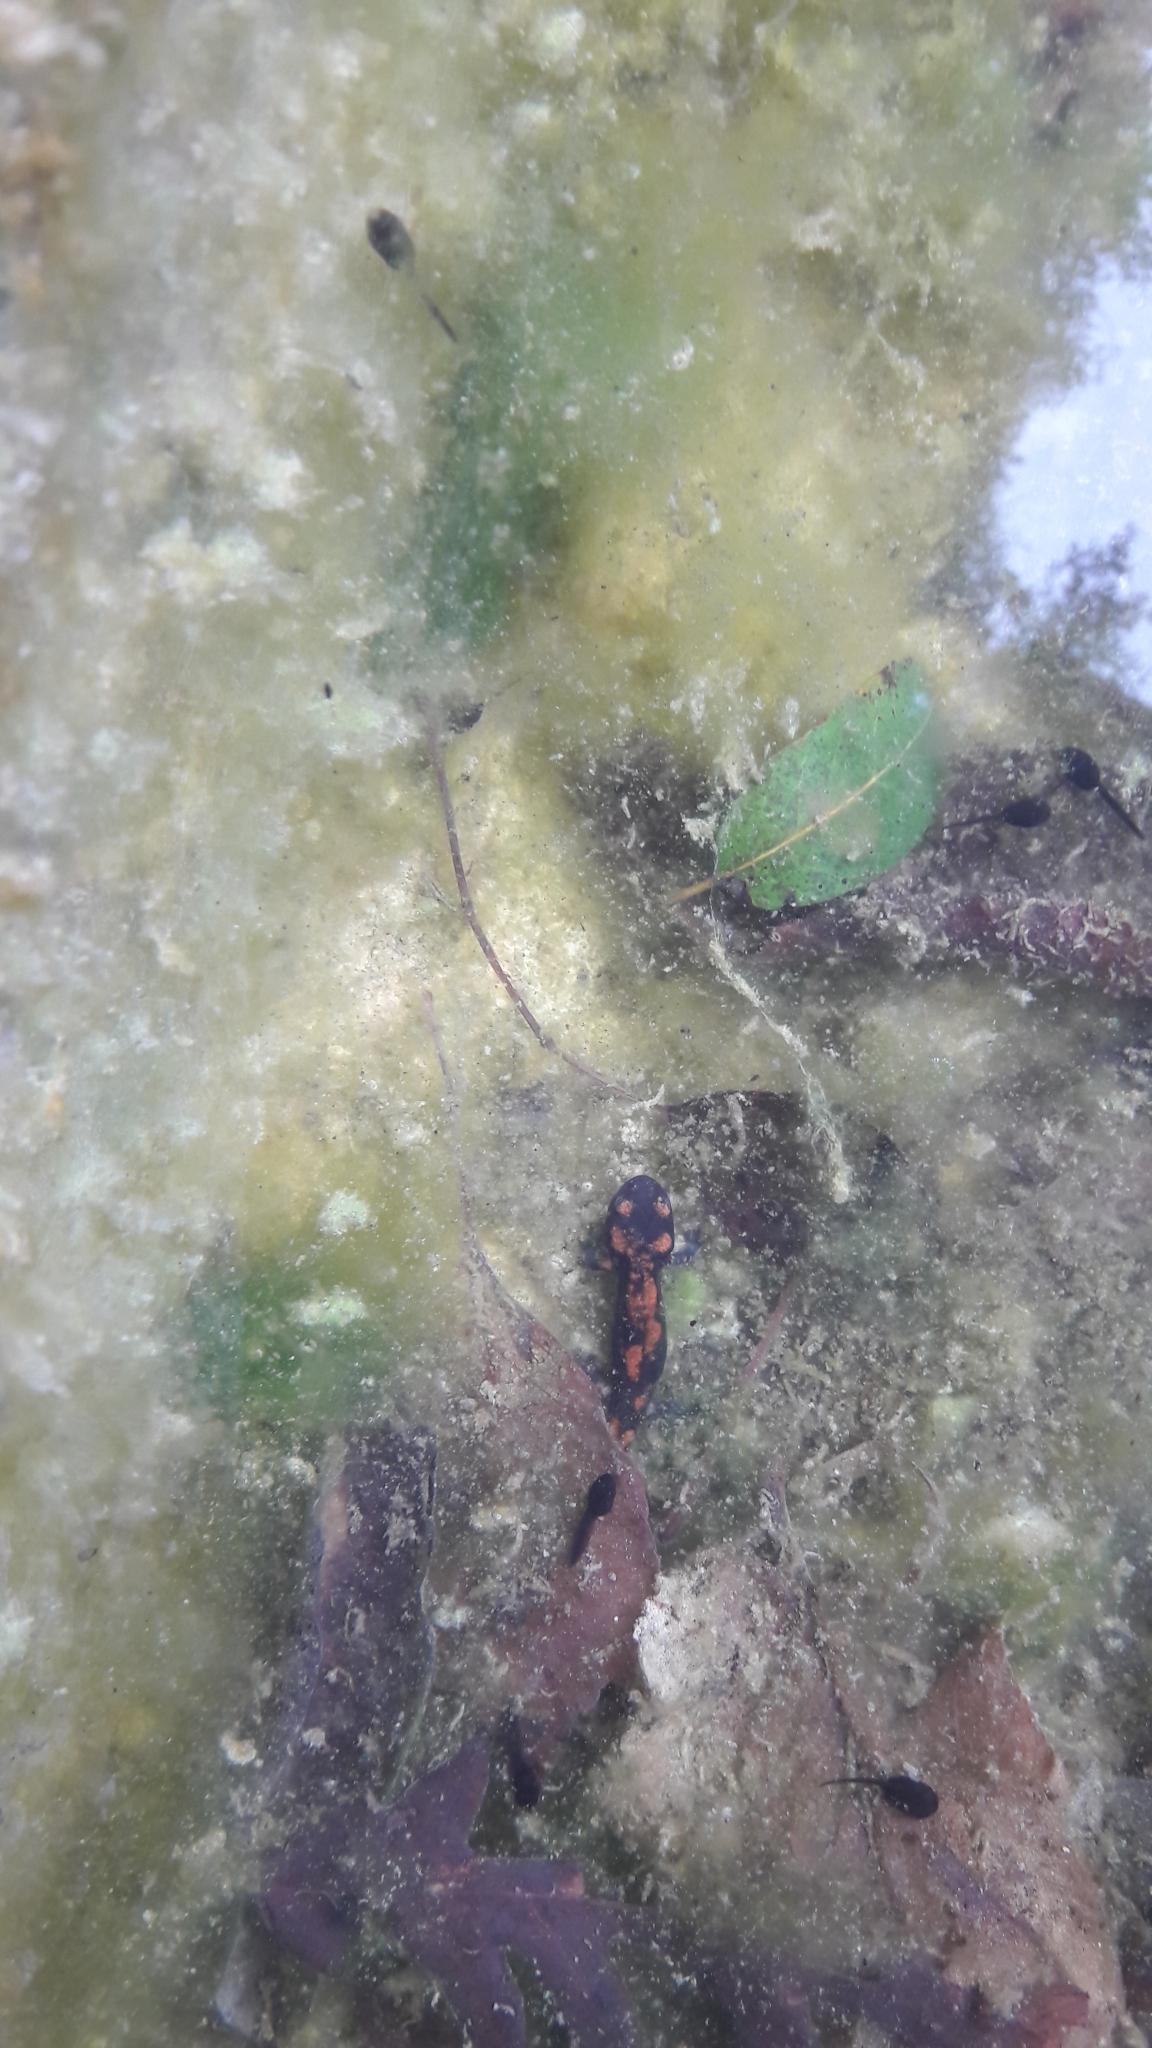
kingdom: Animalia
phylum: Chordata
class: Amphibia
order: Caudata
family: Salamandridae
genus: Salamandra
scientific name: Salamandra salamandra
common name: Fire salamander
